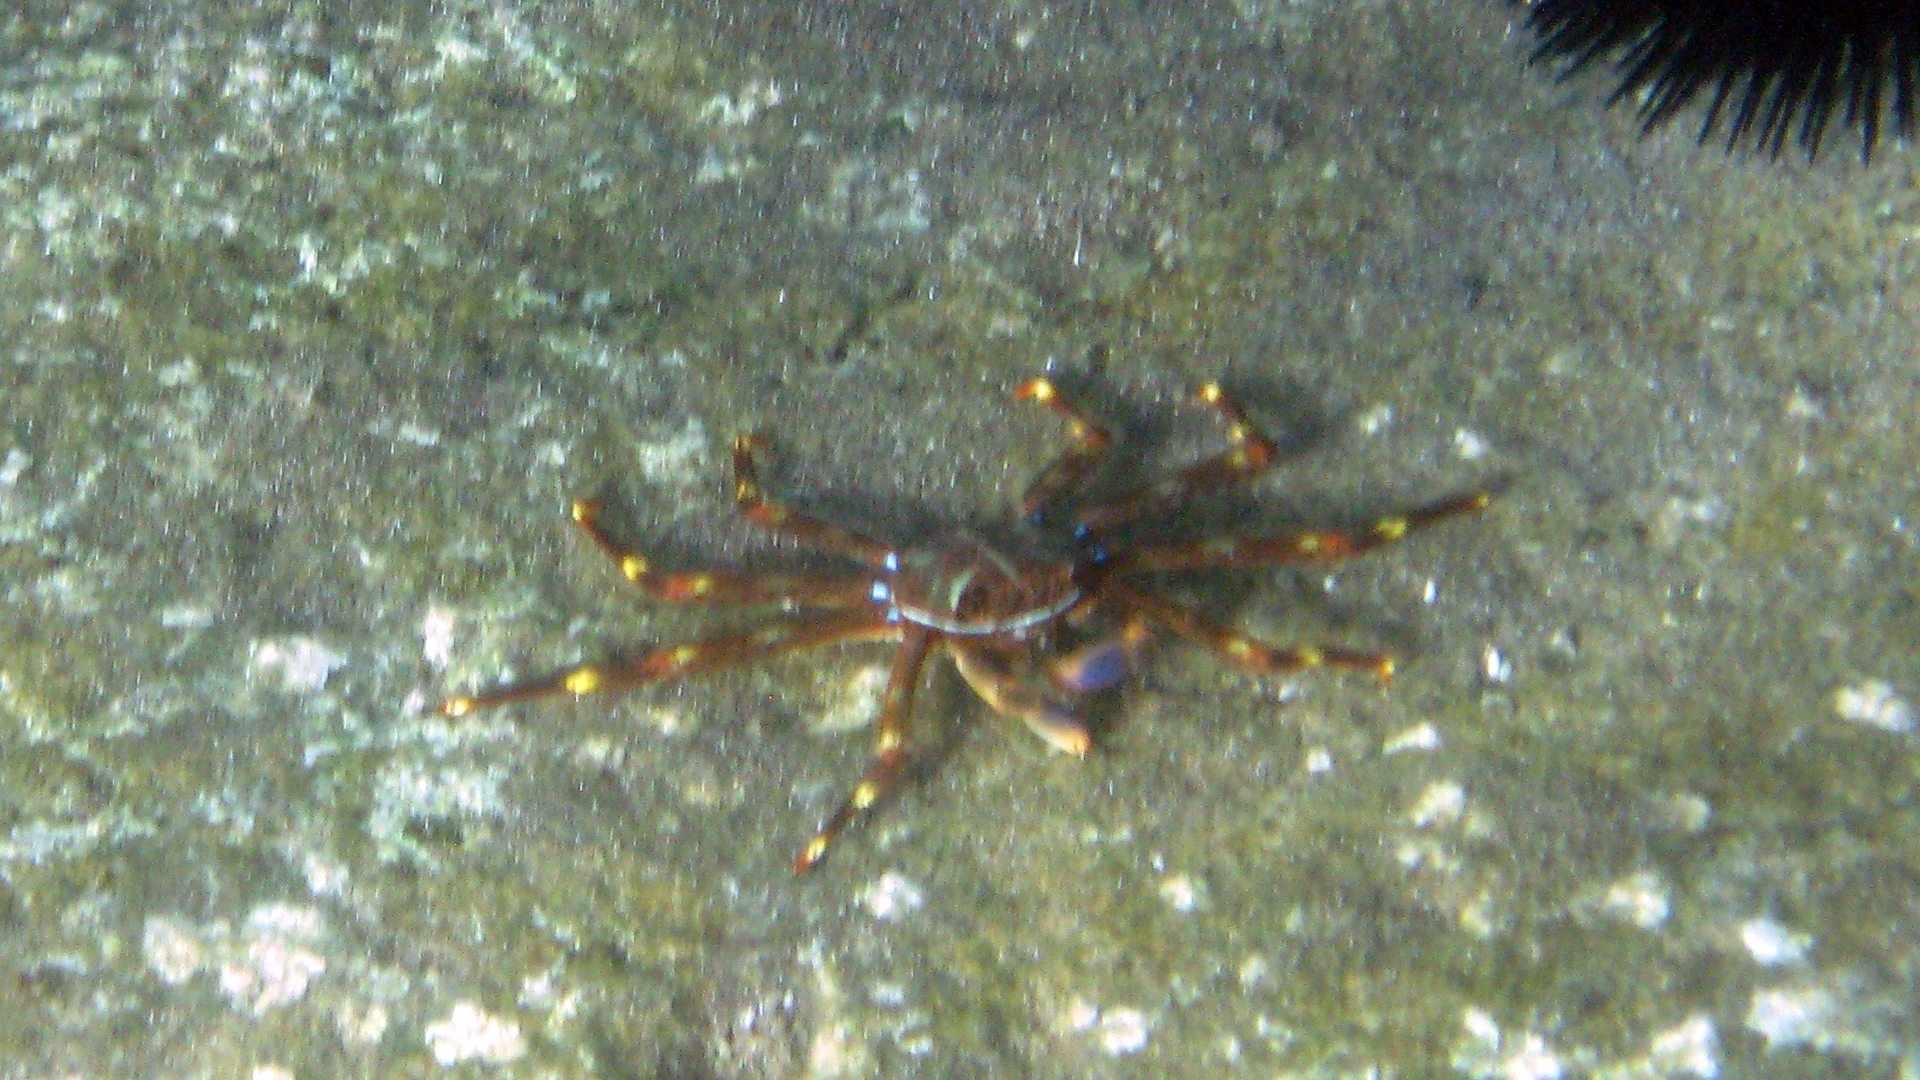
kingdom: Animalia
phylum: Arthropoda
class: Malacostraca
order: Decapoda
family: Percnidae
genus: Percnon
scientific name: Percnon gibbesi
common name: Nimble spray crab
